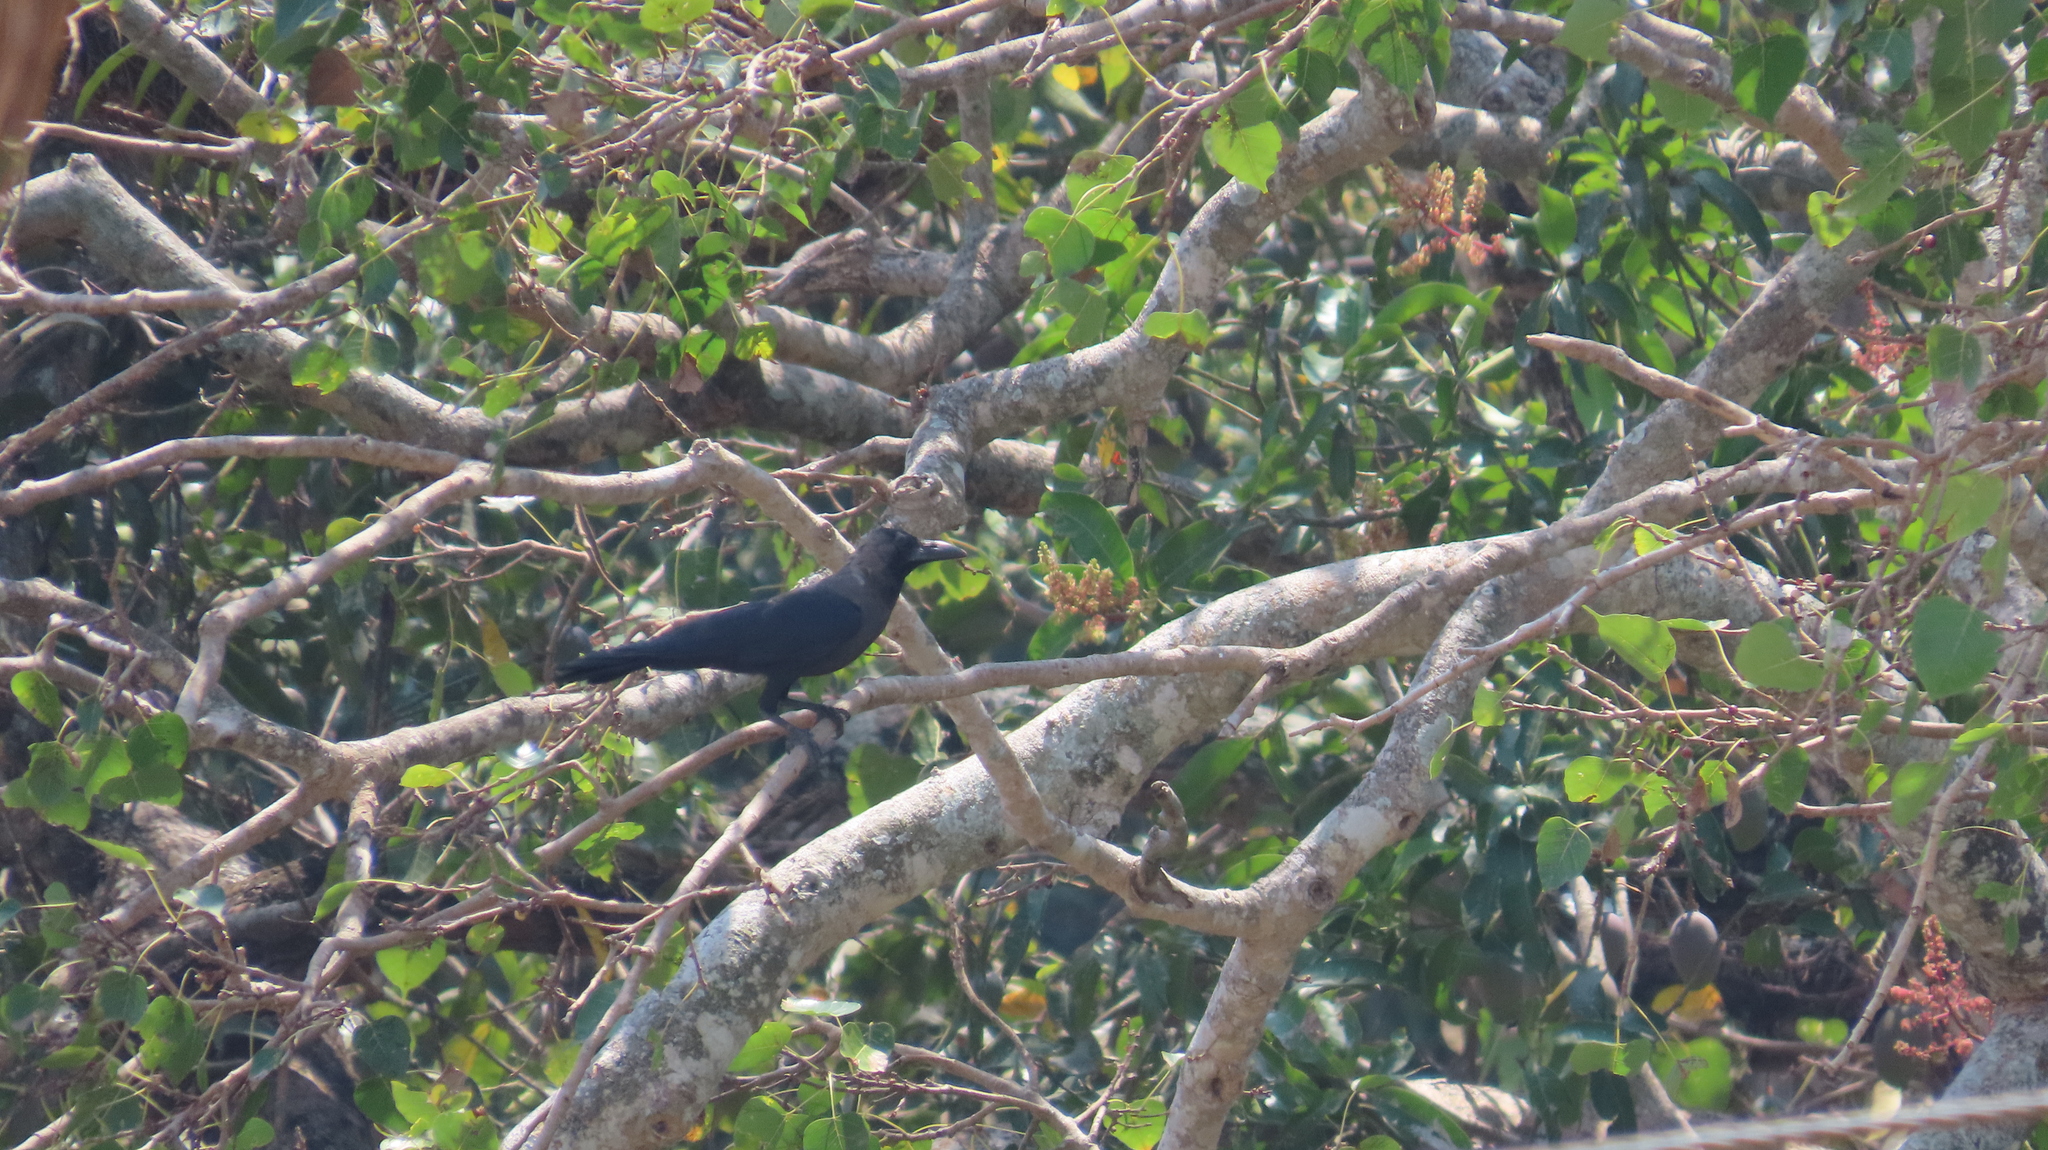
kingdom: Animalia
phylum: Chordata
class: Aves
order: Passeriformes
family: Corvidae
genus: Corvus
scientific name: Corvus splendens
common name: House crow
